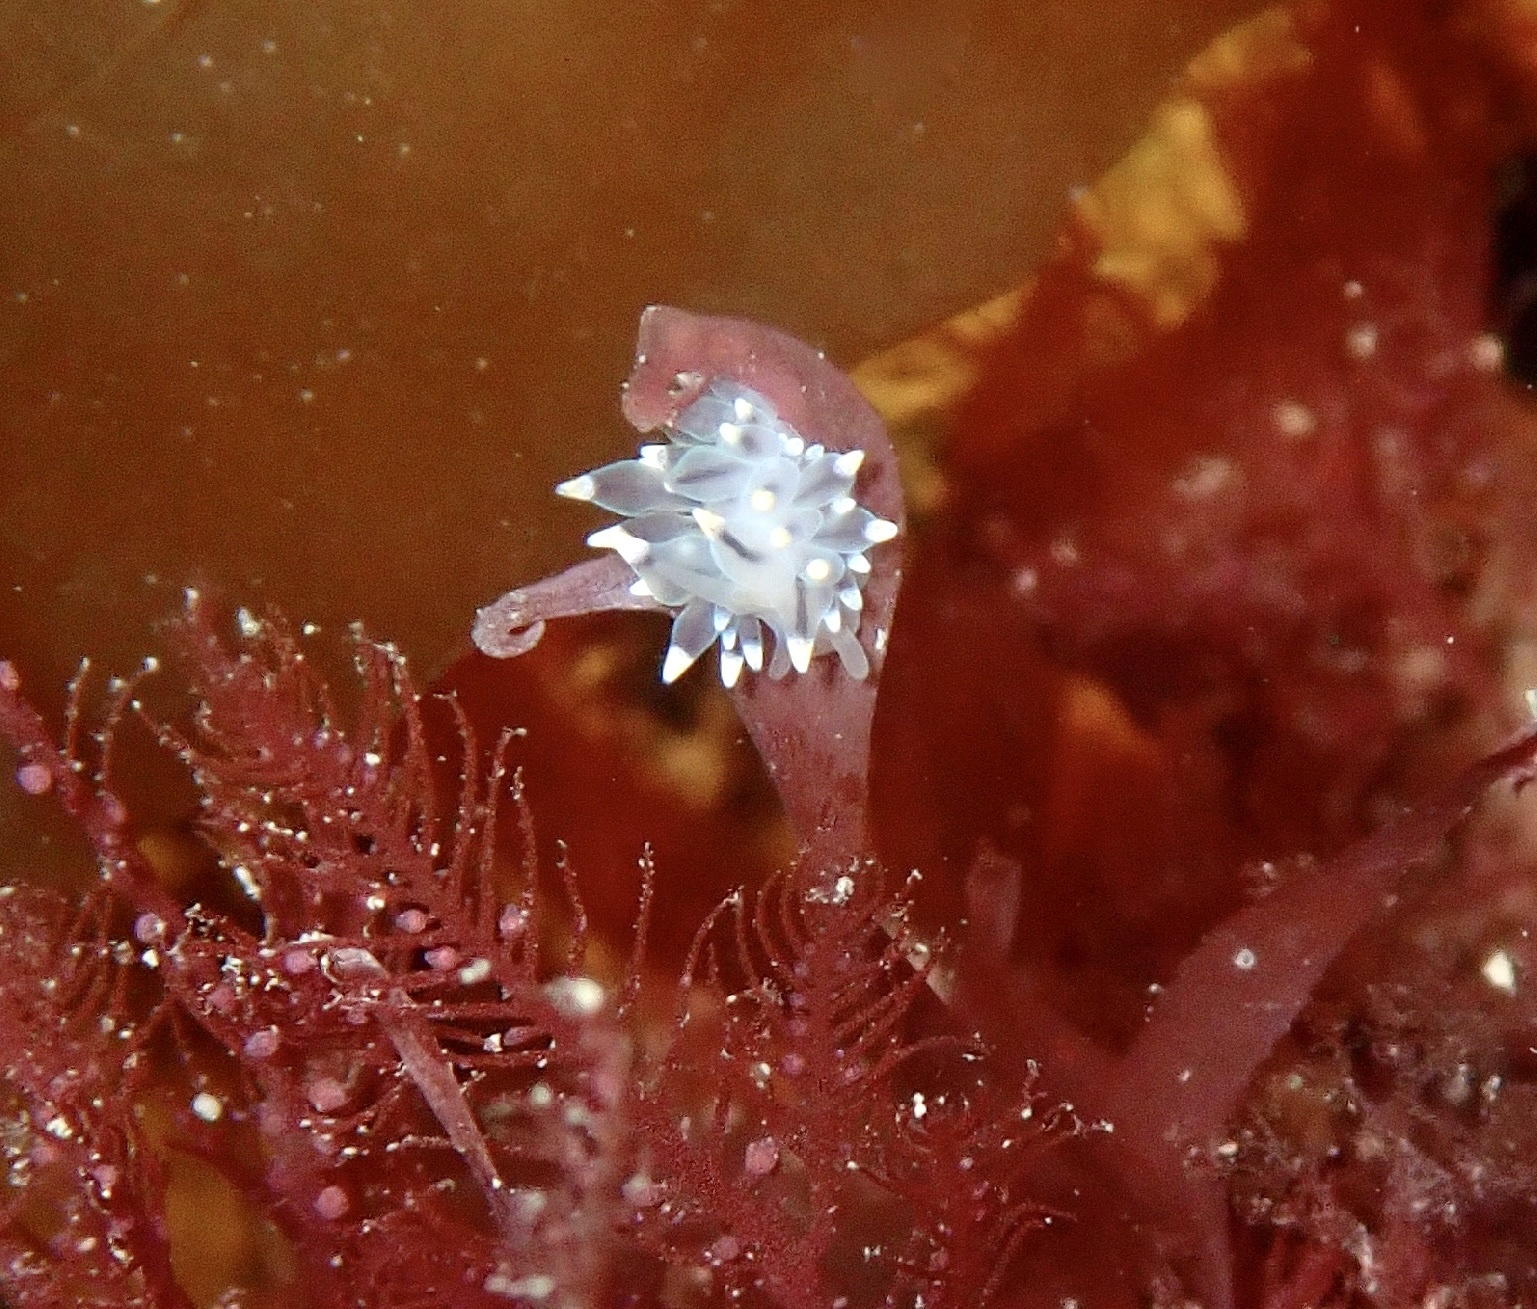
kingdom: Animalia
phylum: Mollusca
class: Gastropoda
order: Nudibranchia
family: Eubranchidae
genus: Eubranchus
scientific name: Eubranchus tricolor
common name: Painted balloon aeolis
